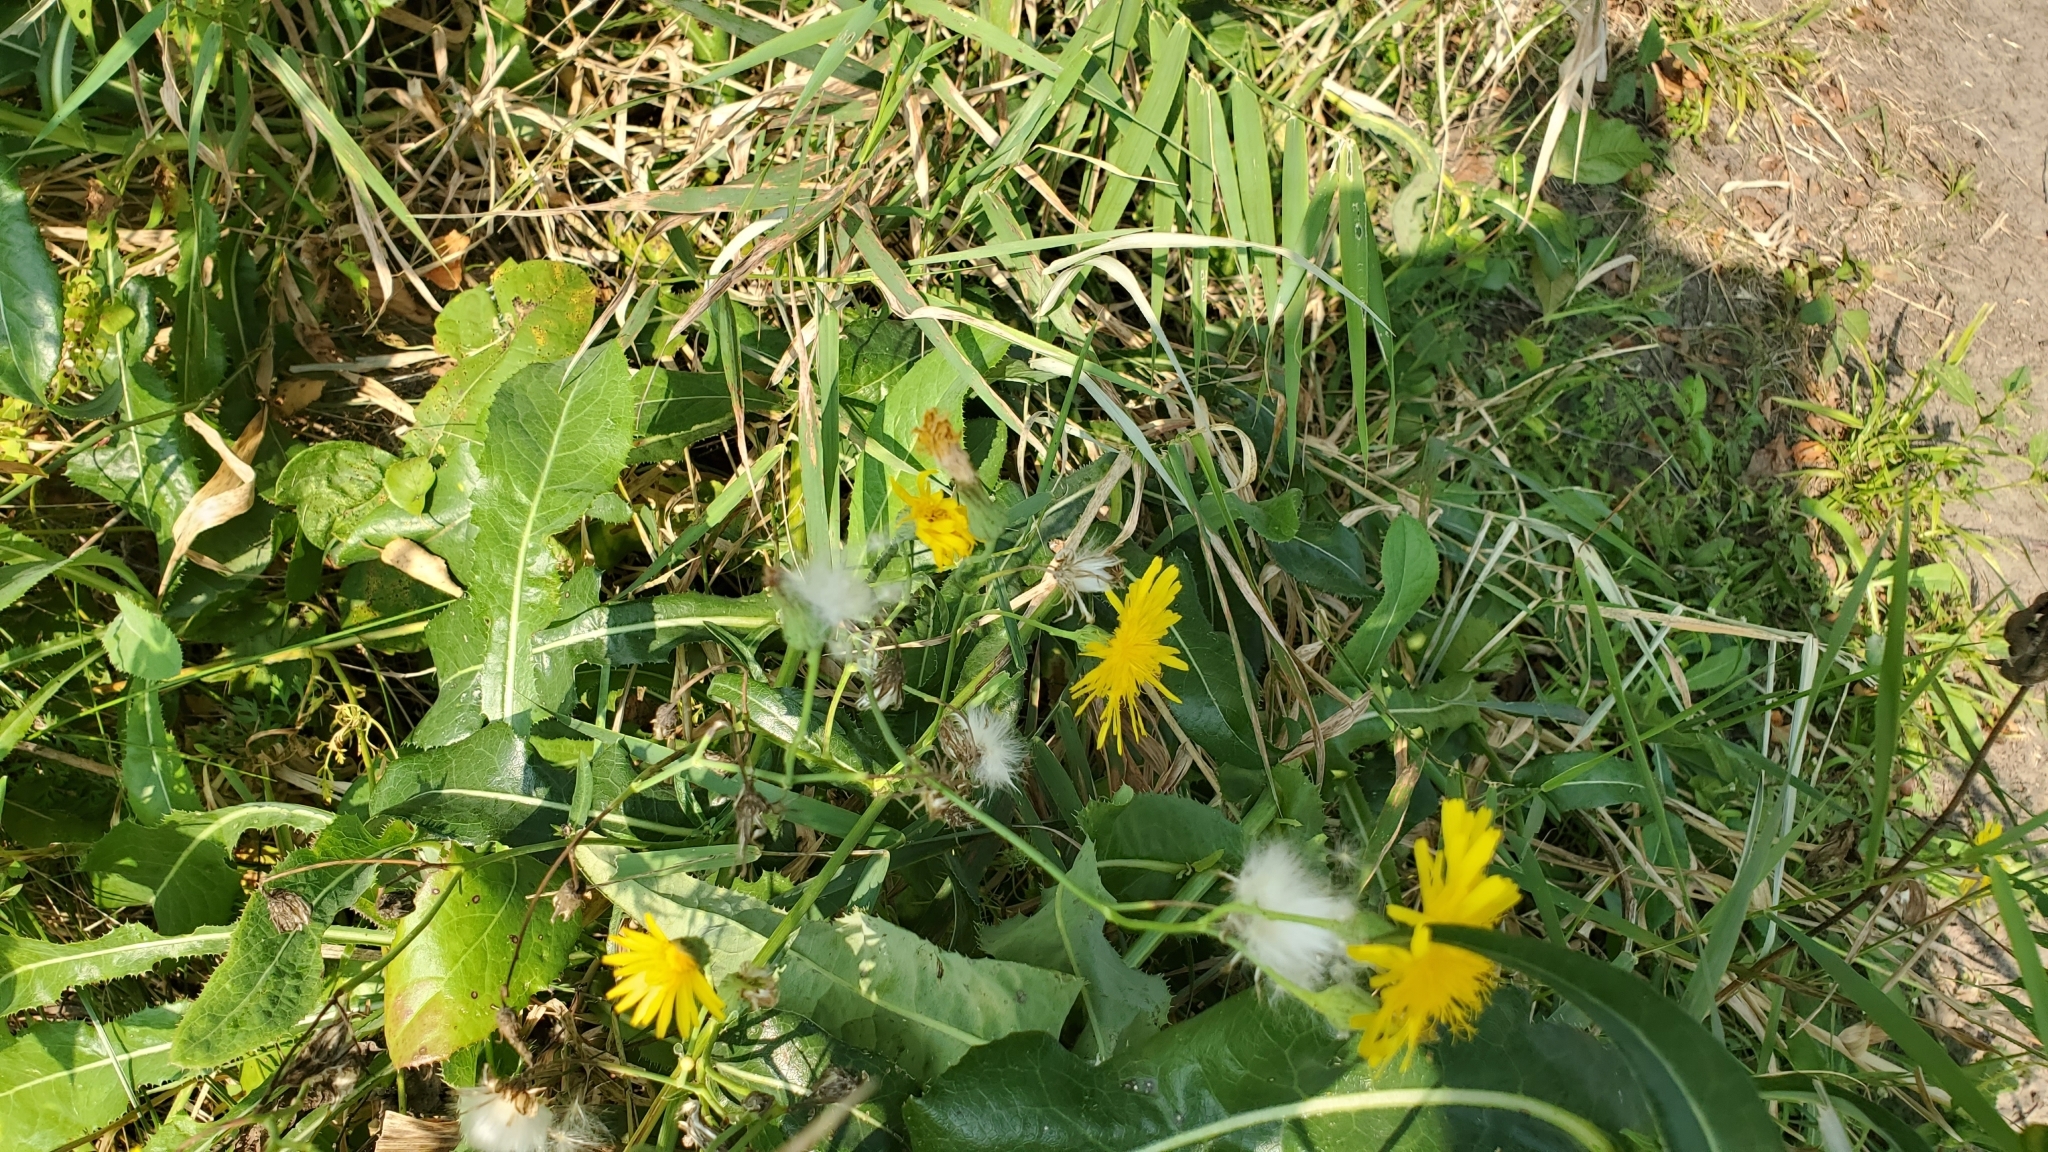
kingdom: Plantae
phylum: Tracheophyta
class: Magnoliopsida
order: Asterales
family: Asteraceae
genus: Sonchus
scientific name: Sonchus arvensis
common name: Perennial sow-thistle
